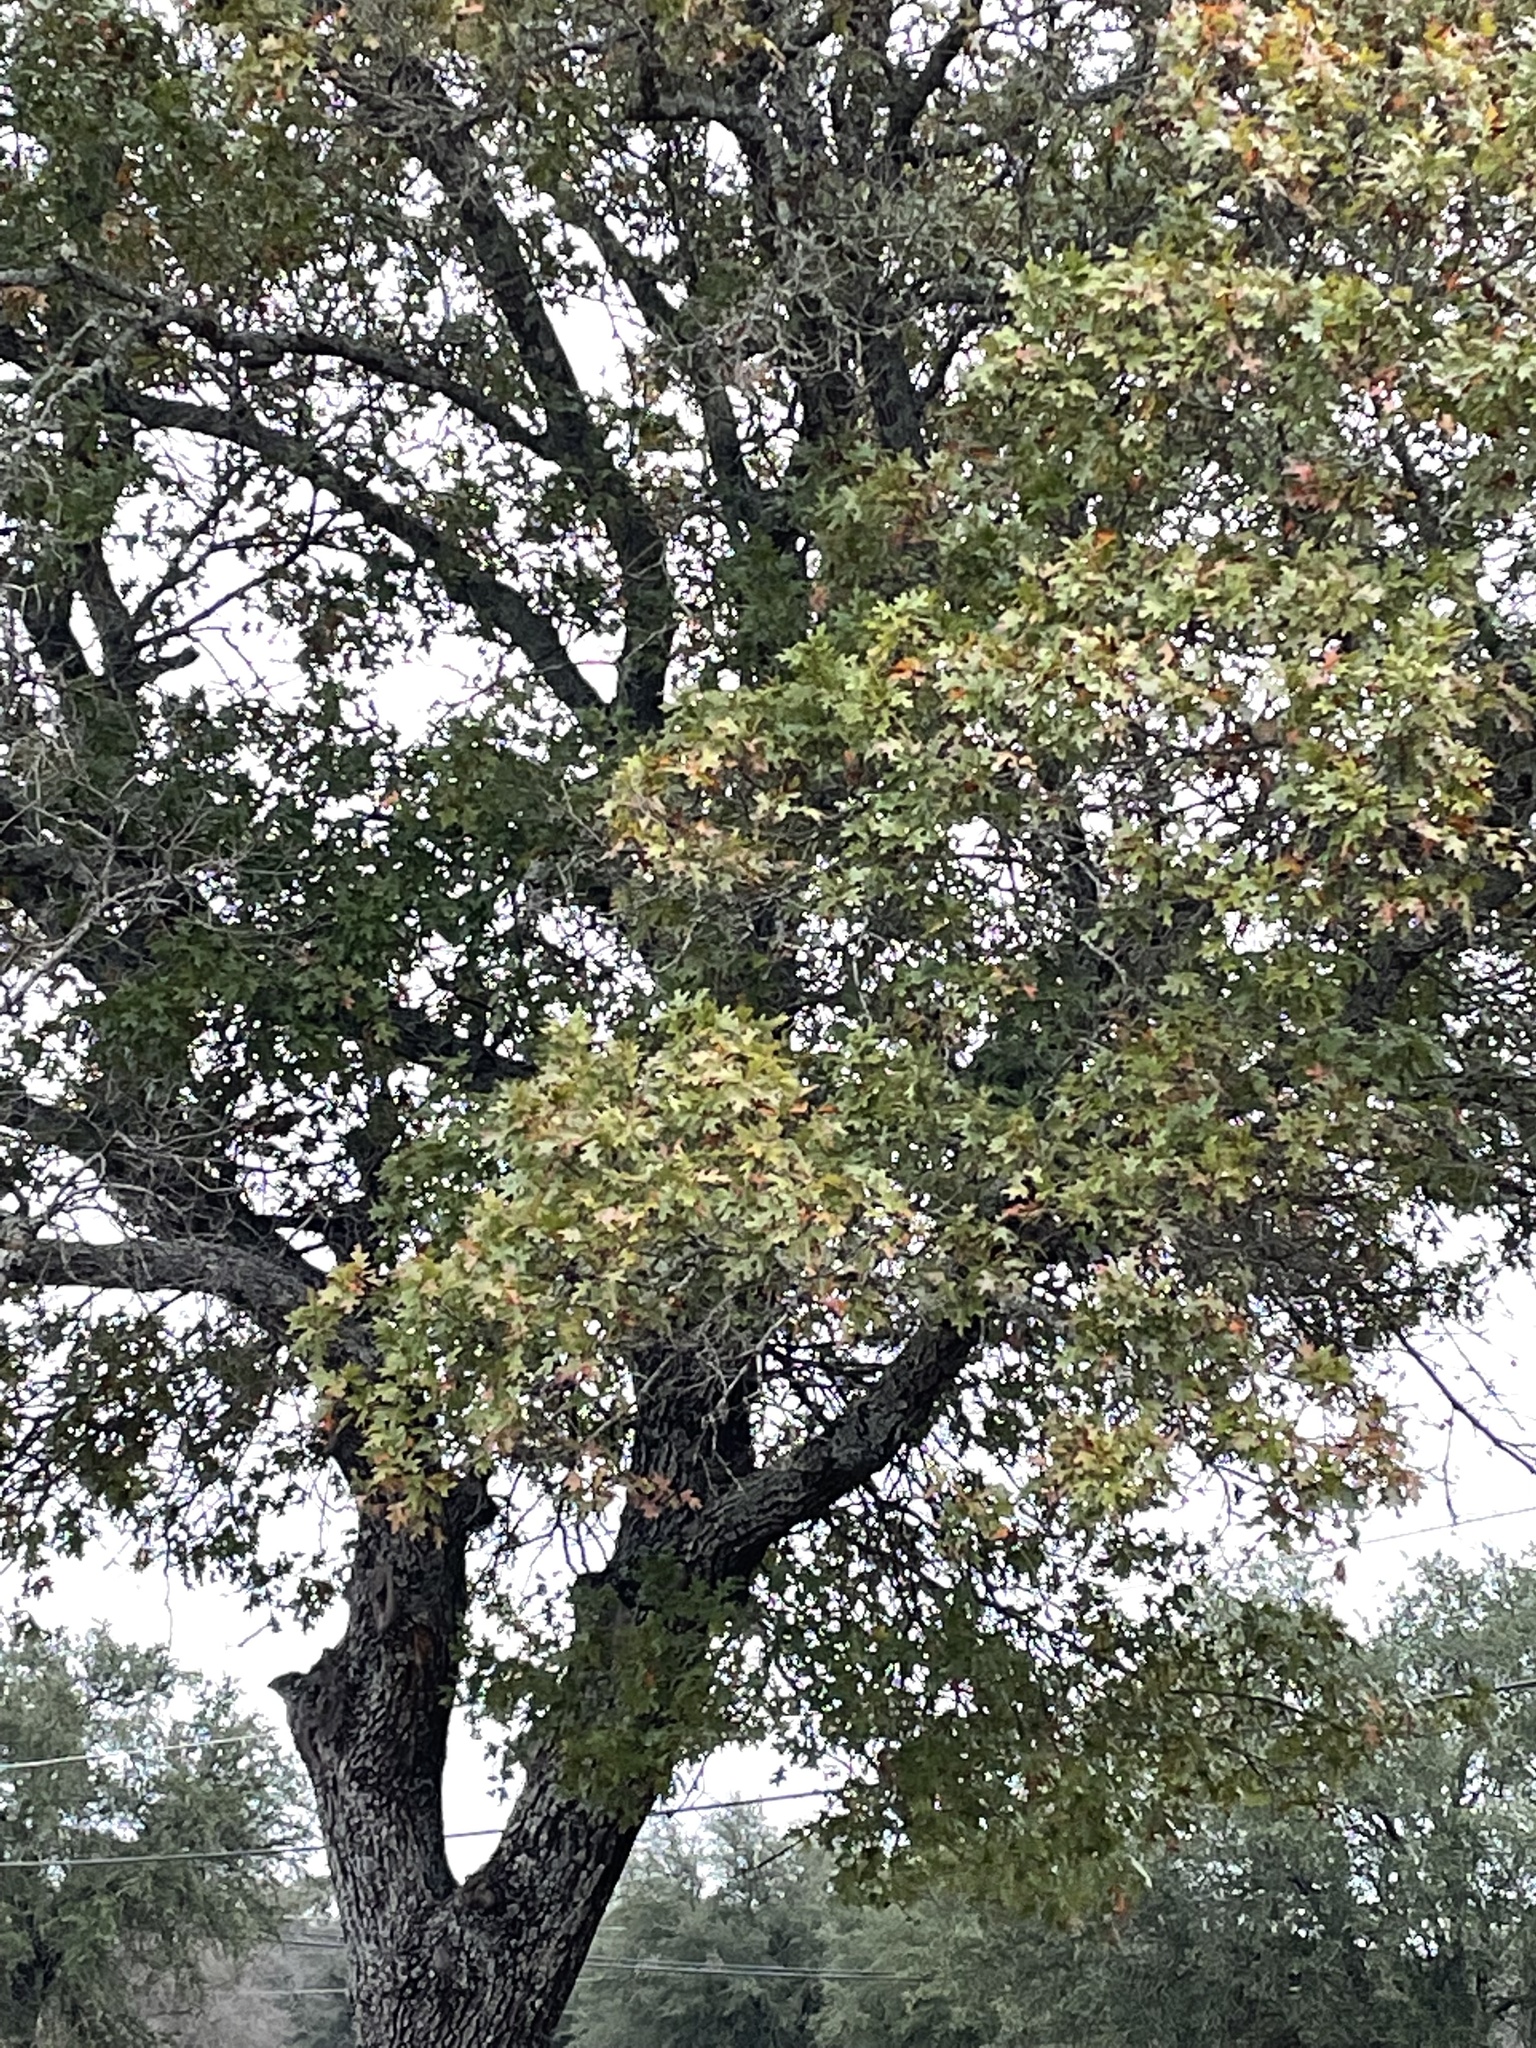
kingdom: Plantae
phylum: Tracheophyta
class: Magnoliopsida
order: Fagales
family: Fagaceae
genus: Quercus
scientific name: Quercus buckleyi
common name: Buckley oak
